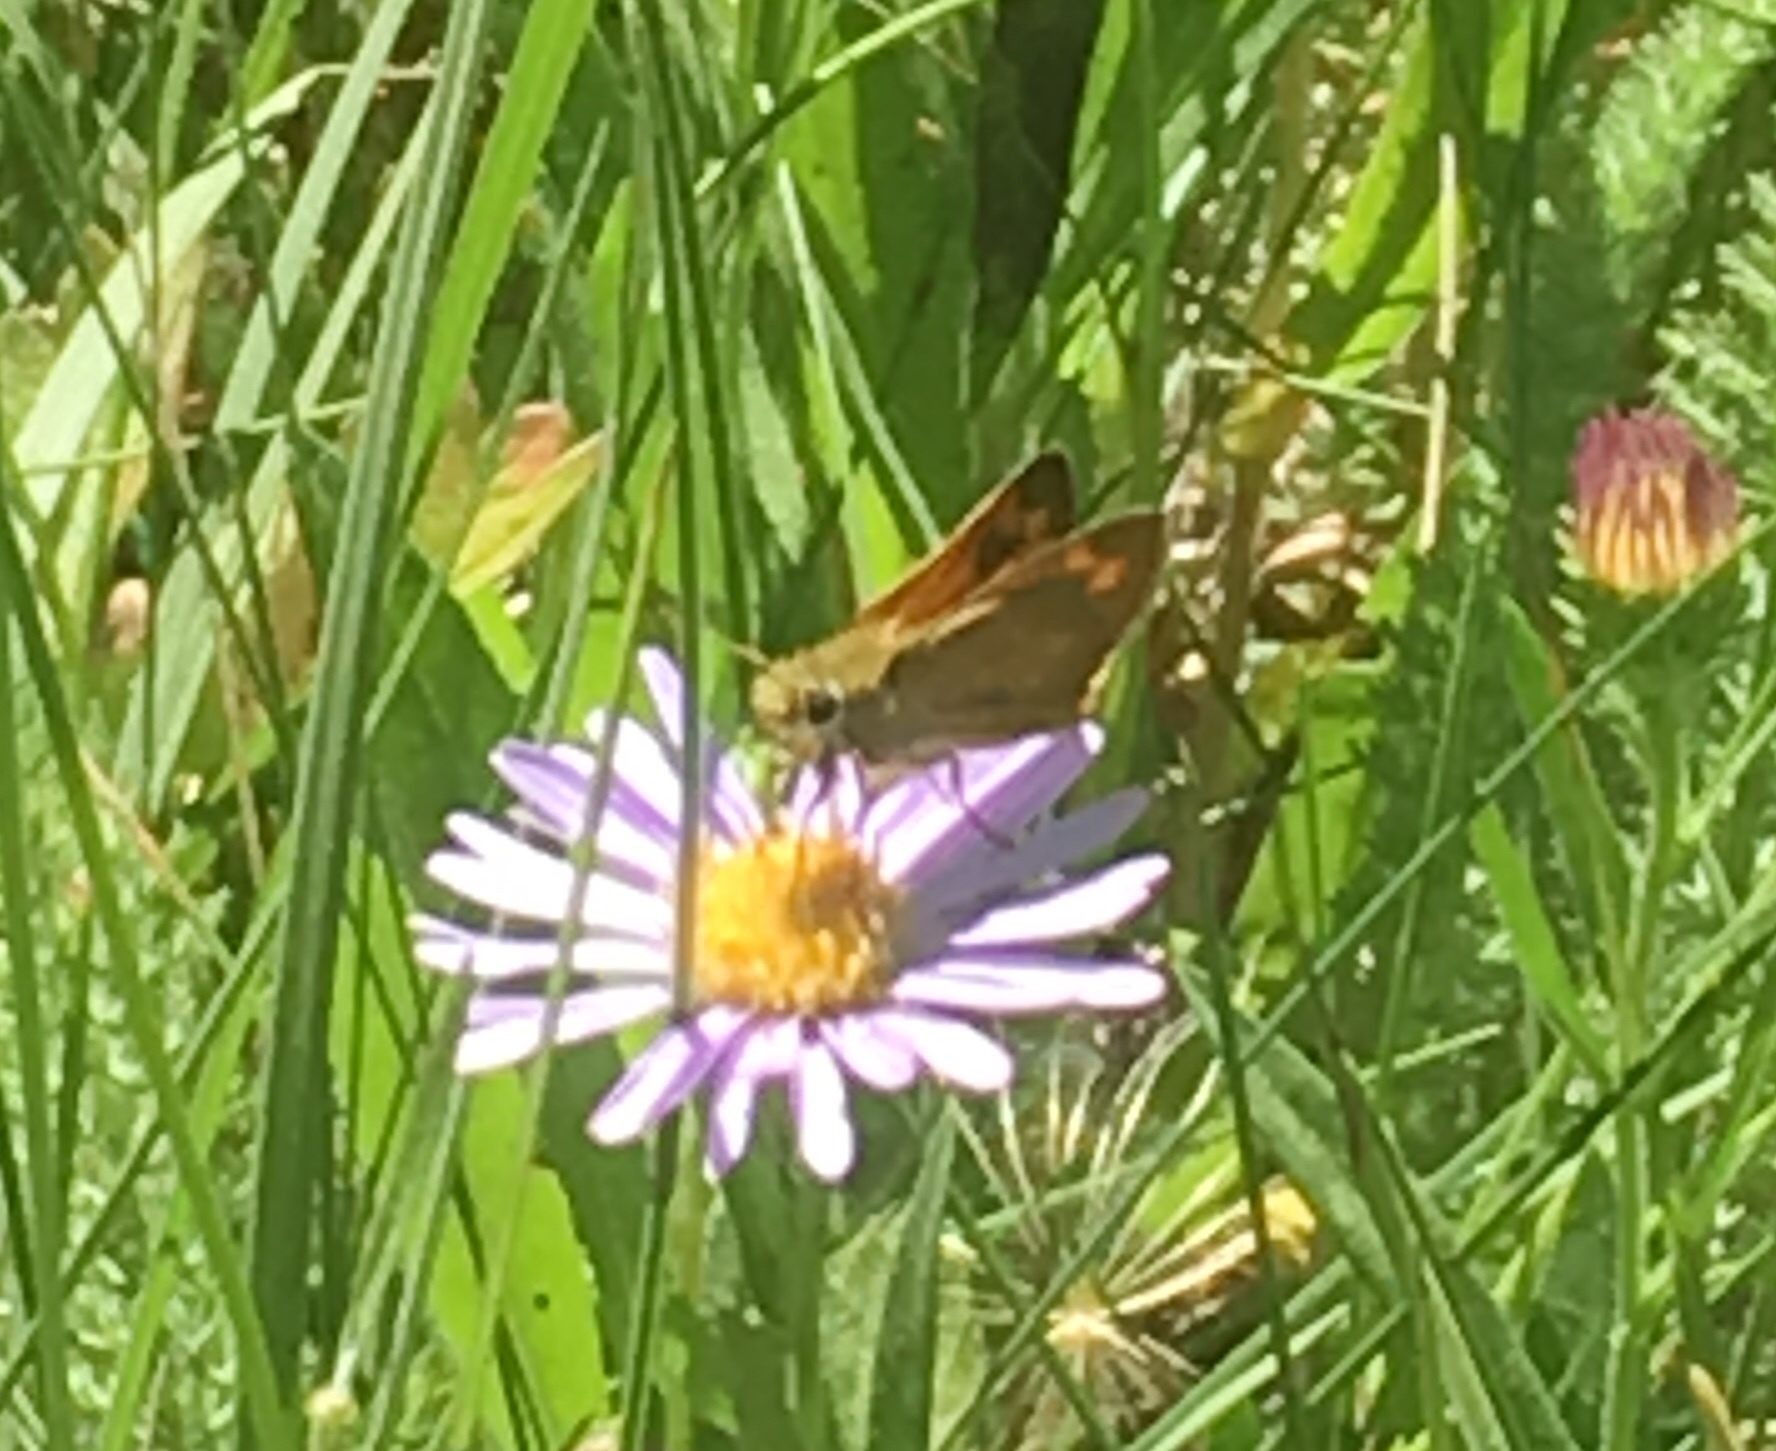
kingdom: Animalia
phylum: Arthropoda
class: Insecta
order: Lepidoptera
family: Hesperiidae
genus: Ochlodes
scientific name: Ochlodes sylvanoides
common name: Woodland skipper
